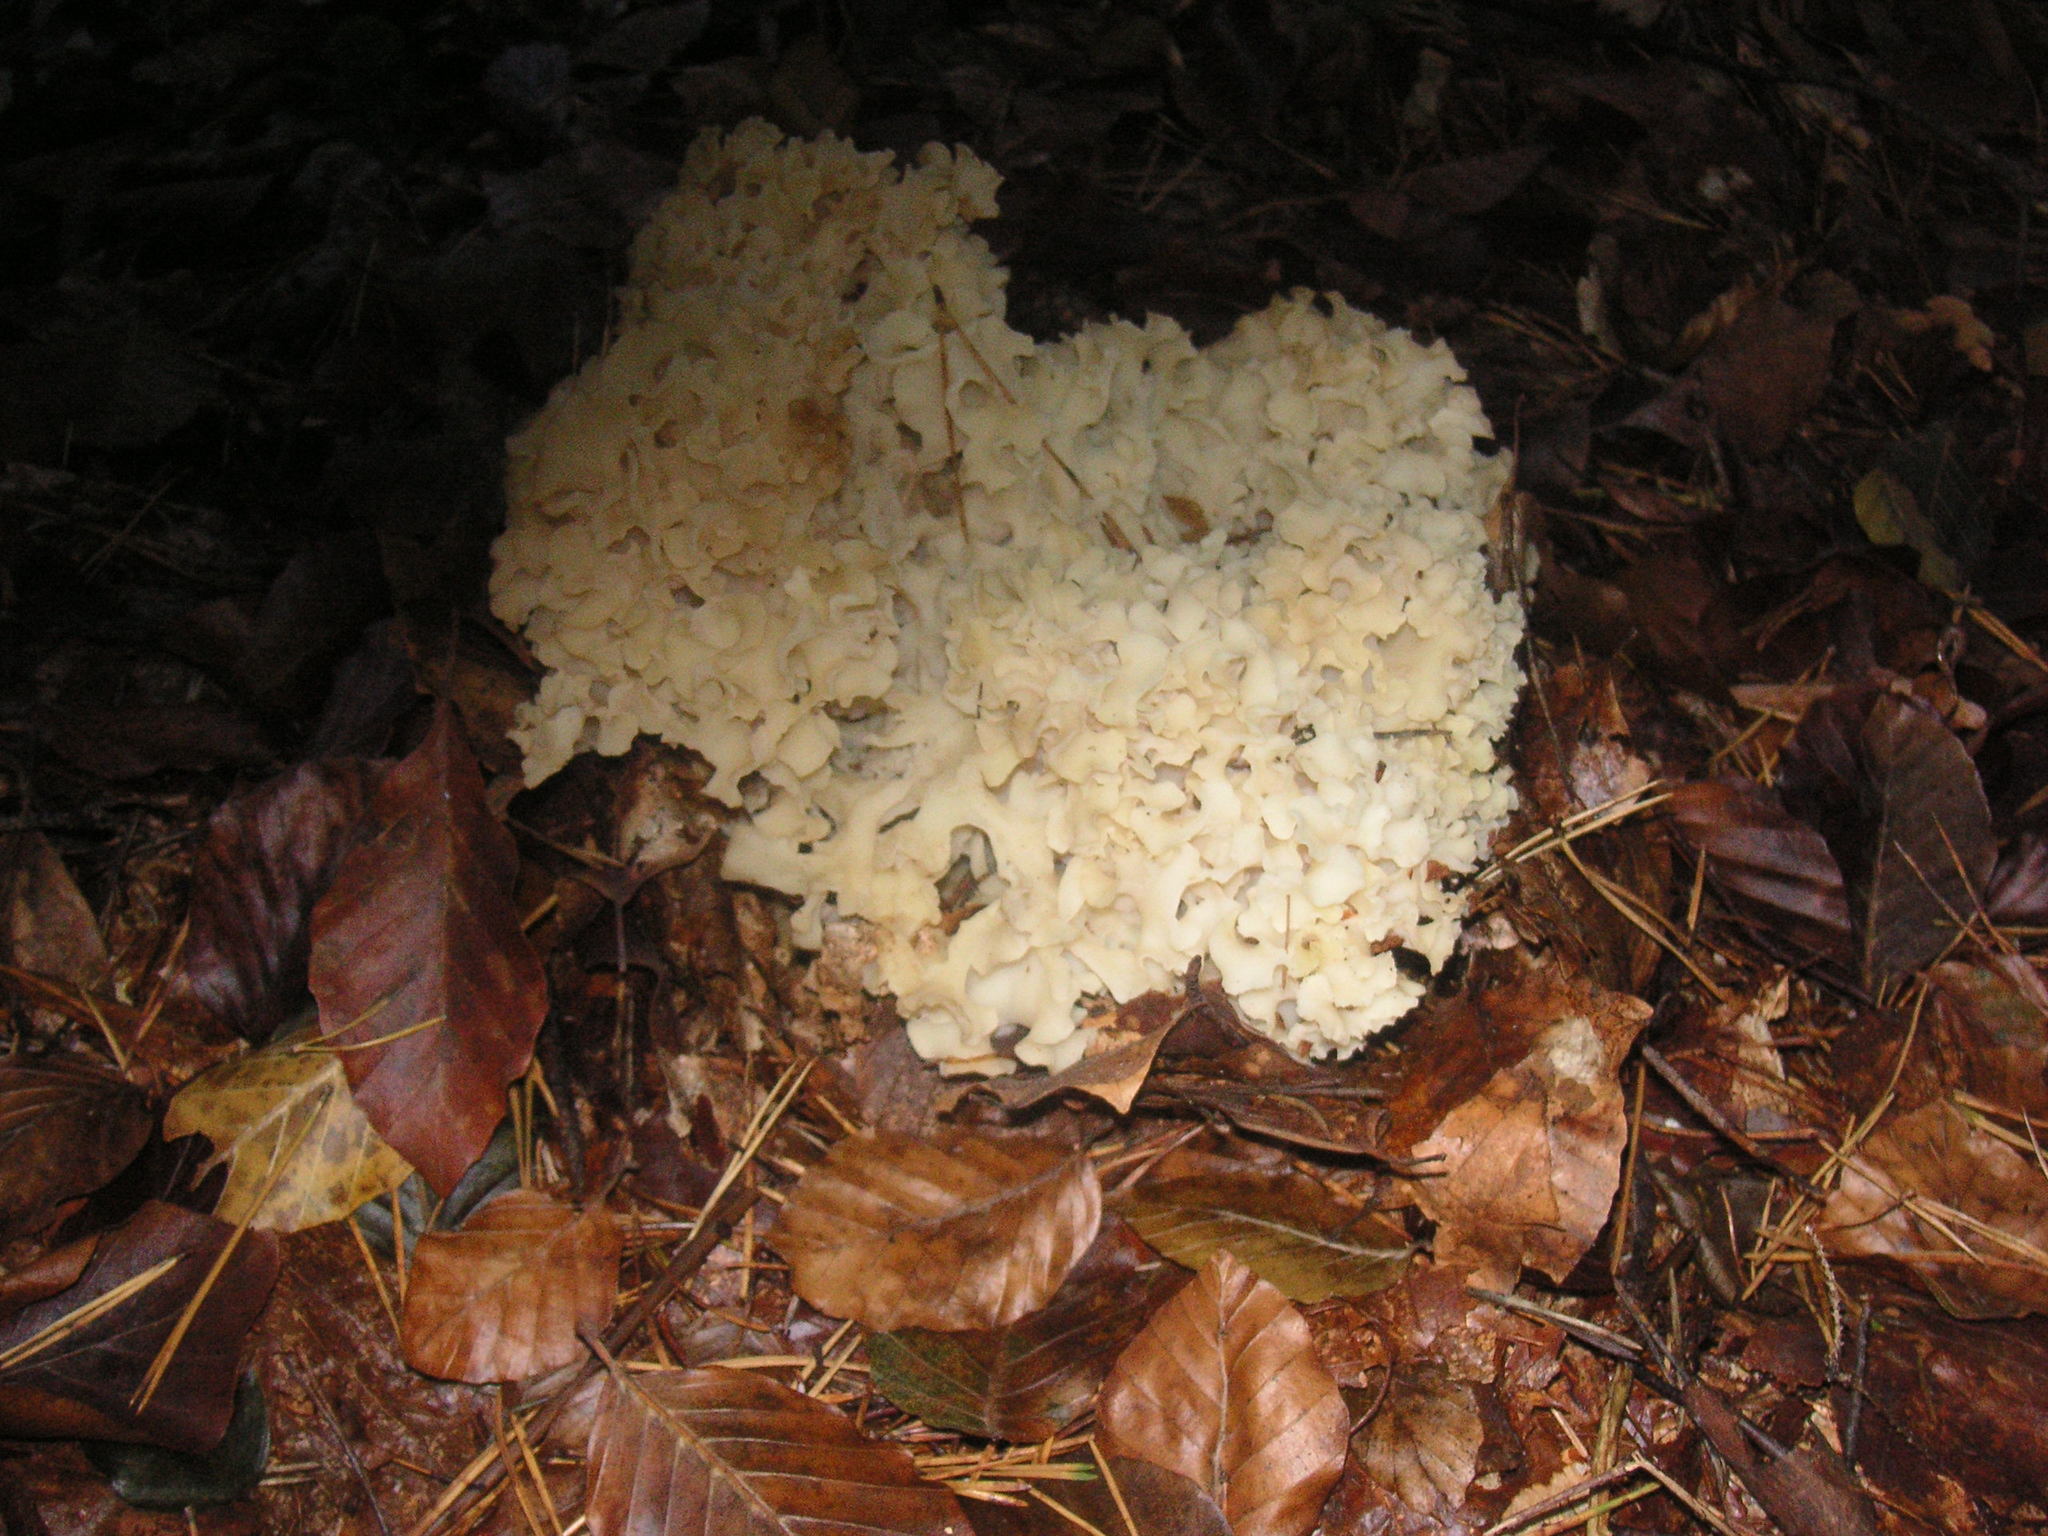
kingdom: Fungi
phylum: Basidiomycota
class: Agaricomycetes
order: Polyporales
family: Sparassidaceae
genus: Sparassis
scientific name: Sparassis crispa
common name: Brain fungus
